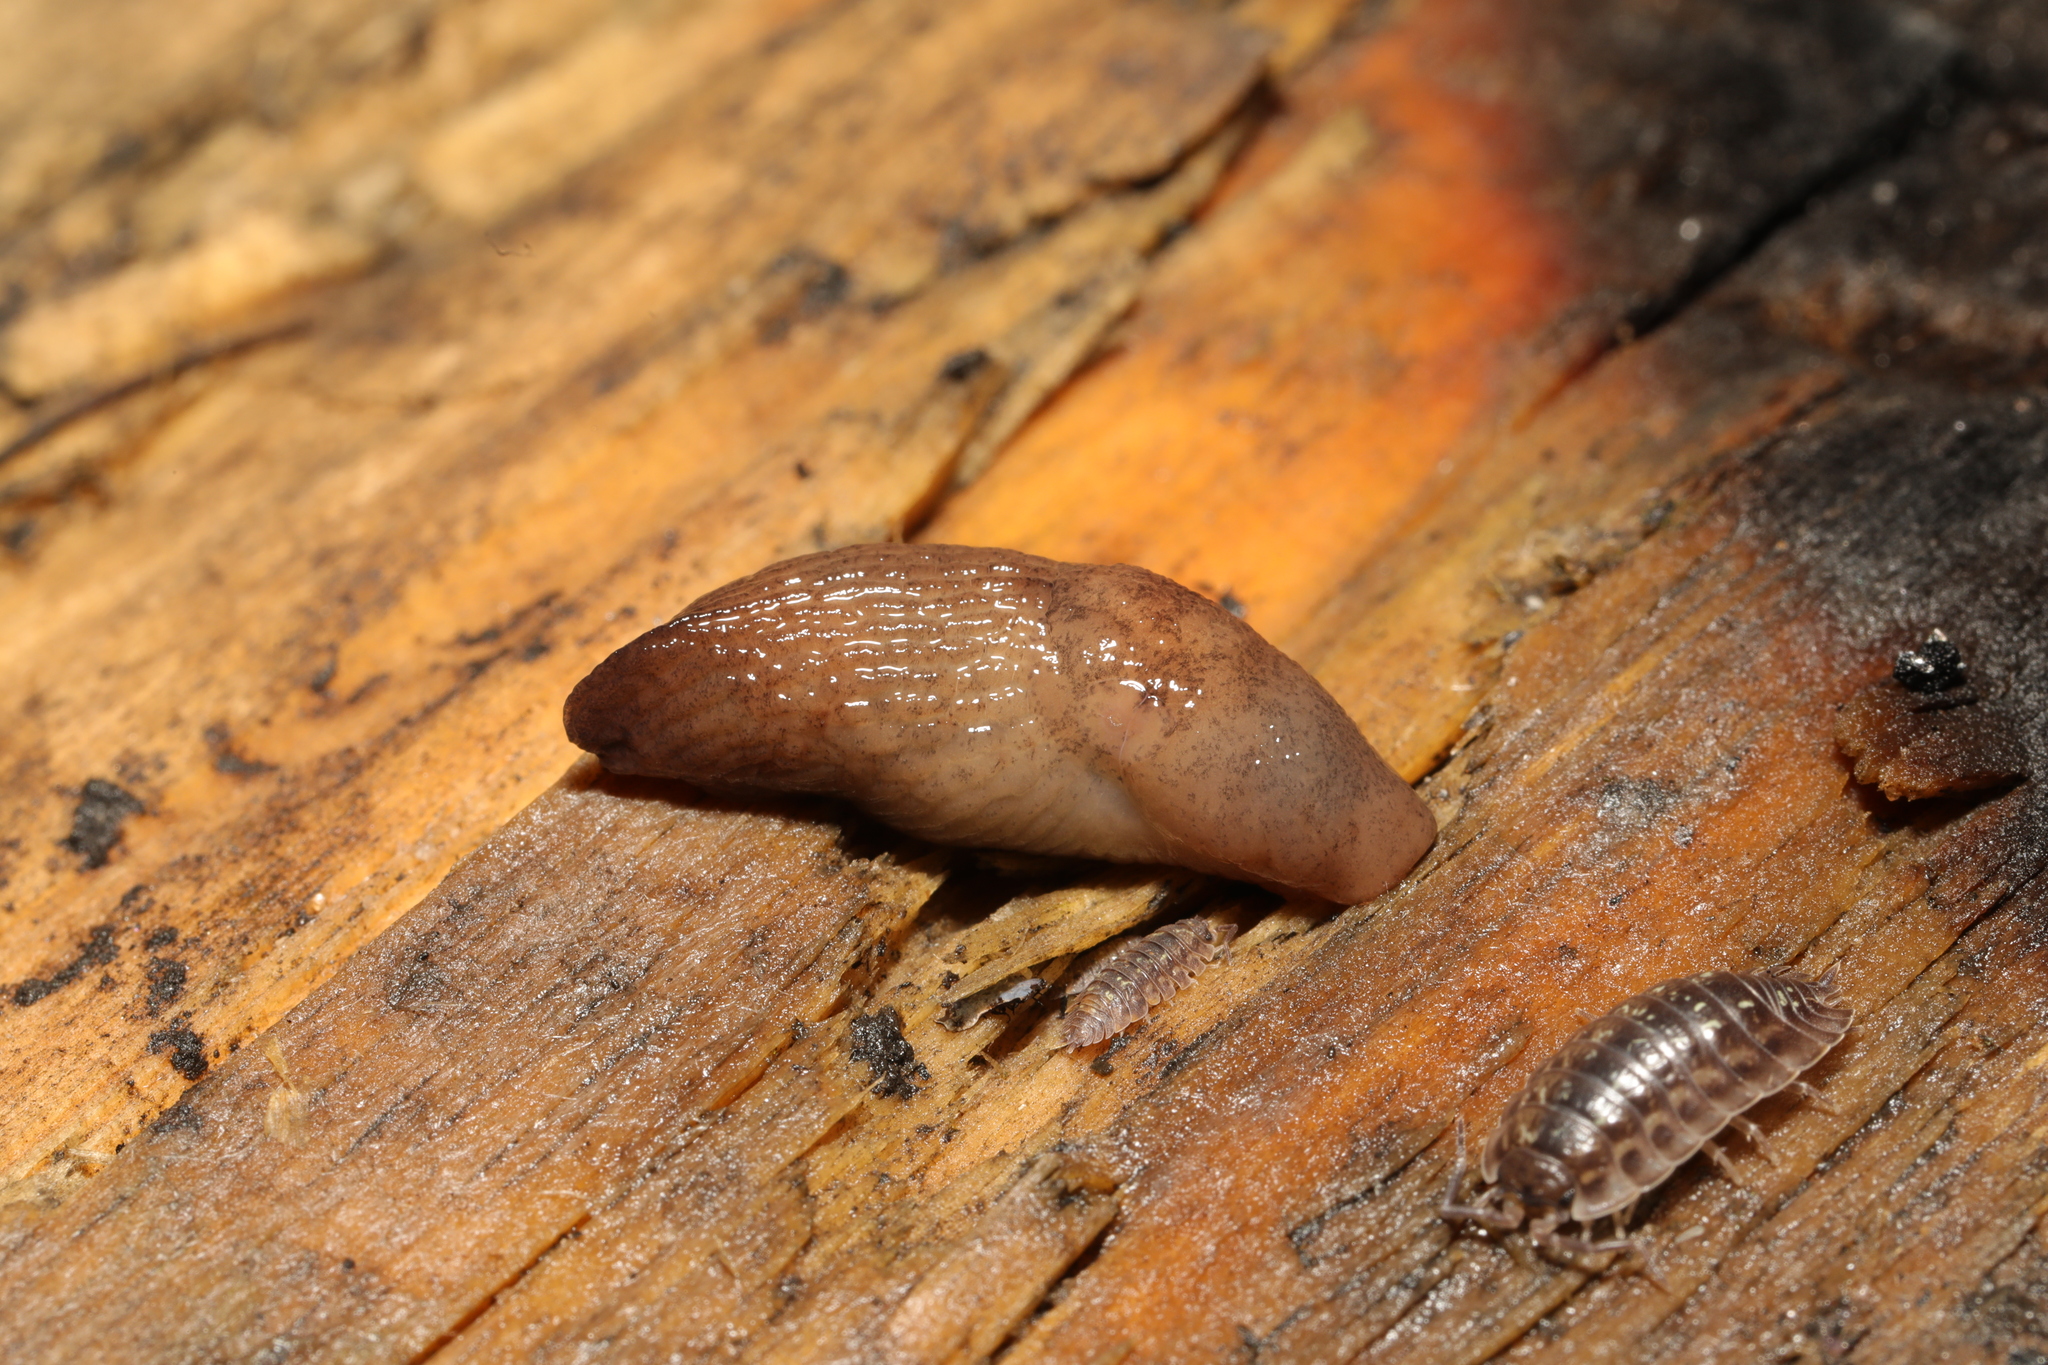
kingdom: Animalia
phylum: Arthropoda
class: Malacostraca
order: Isopoda
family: Oniscidae
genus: Oniscus
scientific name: Oniscus asellus
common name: Common shiny woodlouse
